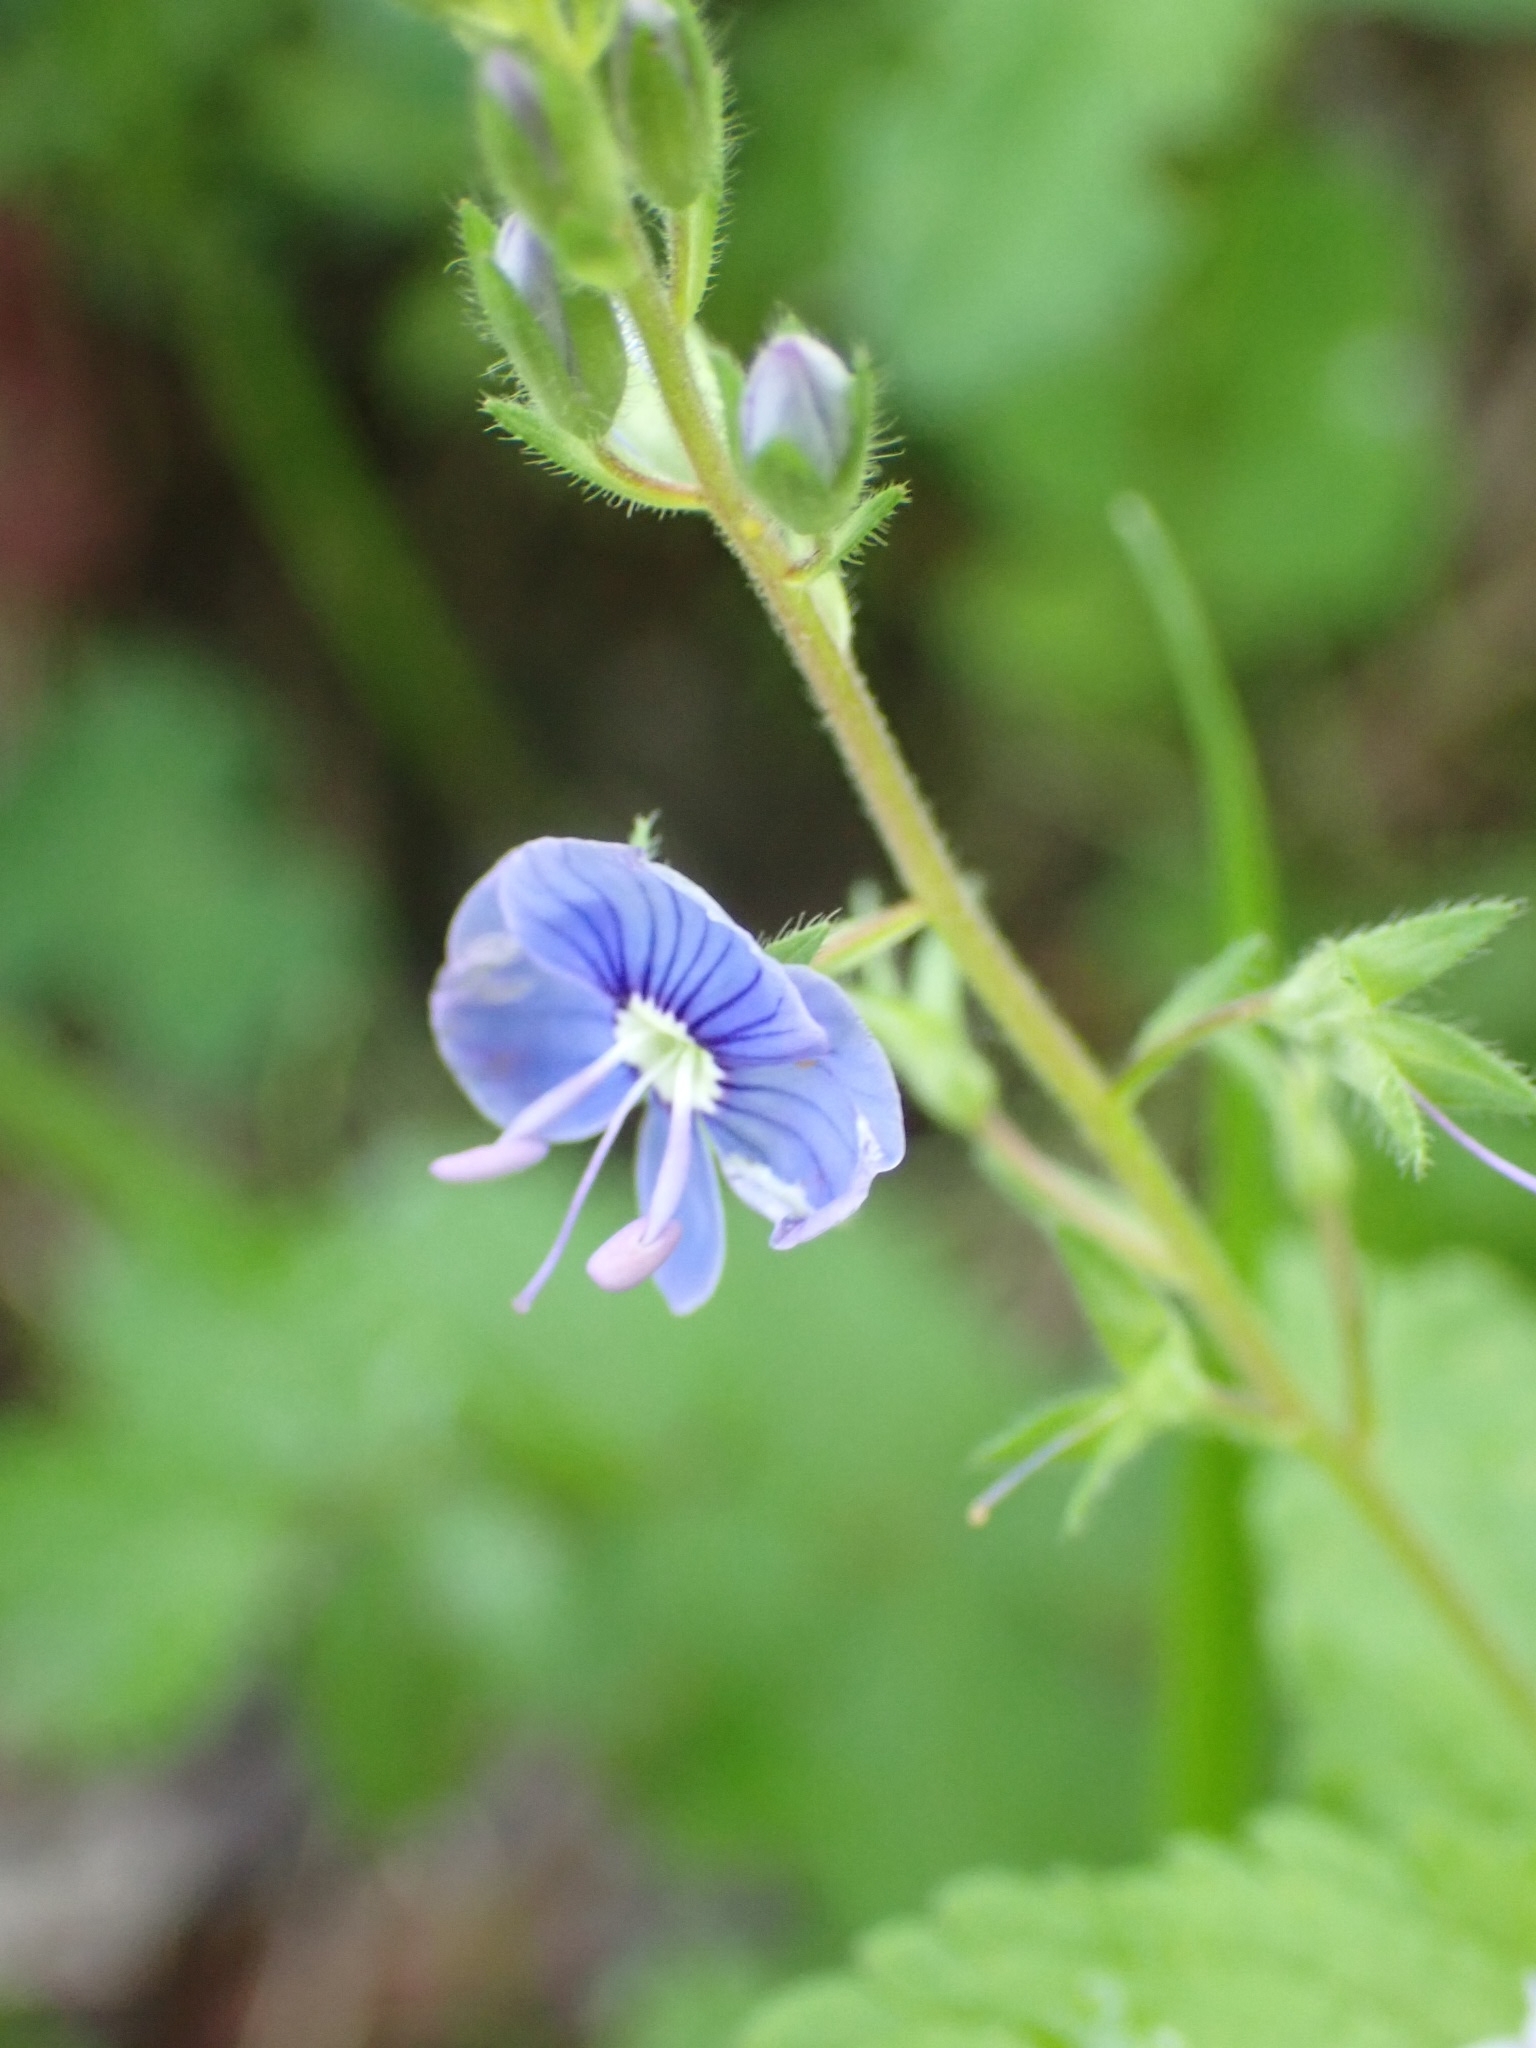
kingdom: Plantae
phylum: Tracheophyta
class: Magnoliopsida
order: Lamiales
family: Plantaginaceae
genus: Veronica
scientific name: Veronica chamaedrys
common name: Germander speedwell
